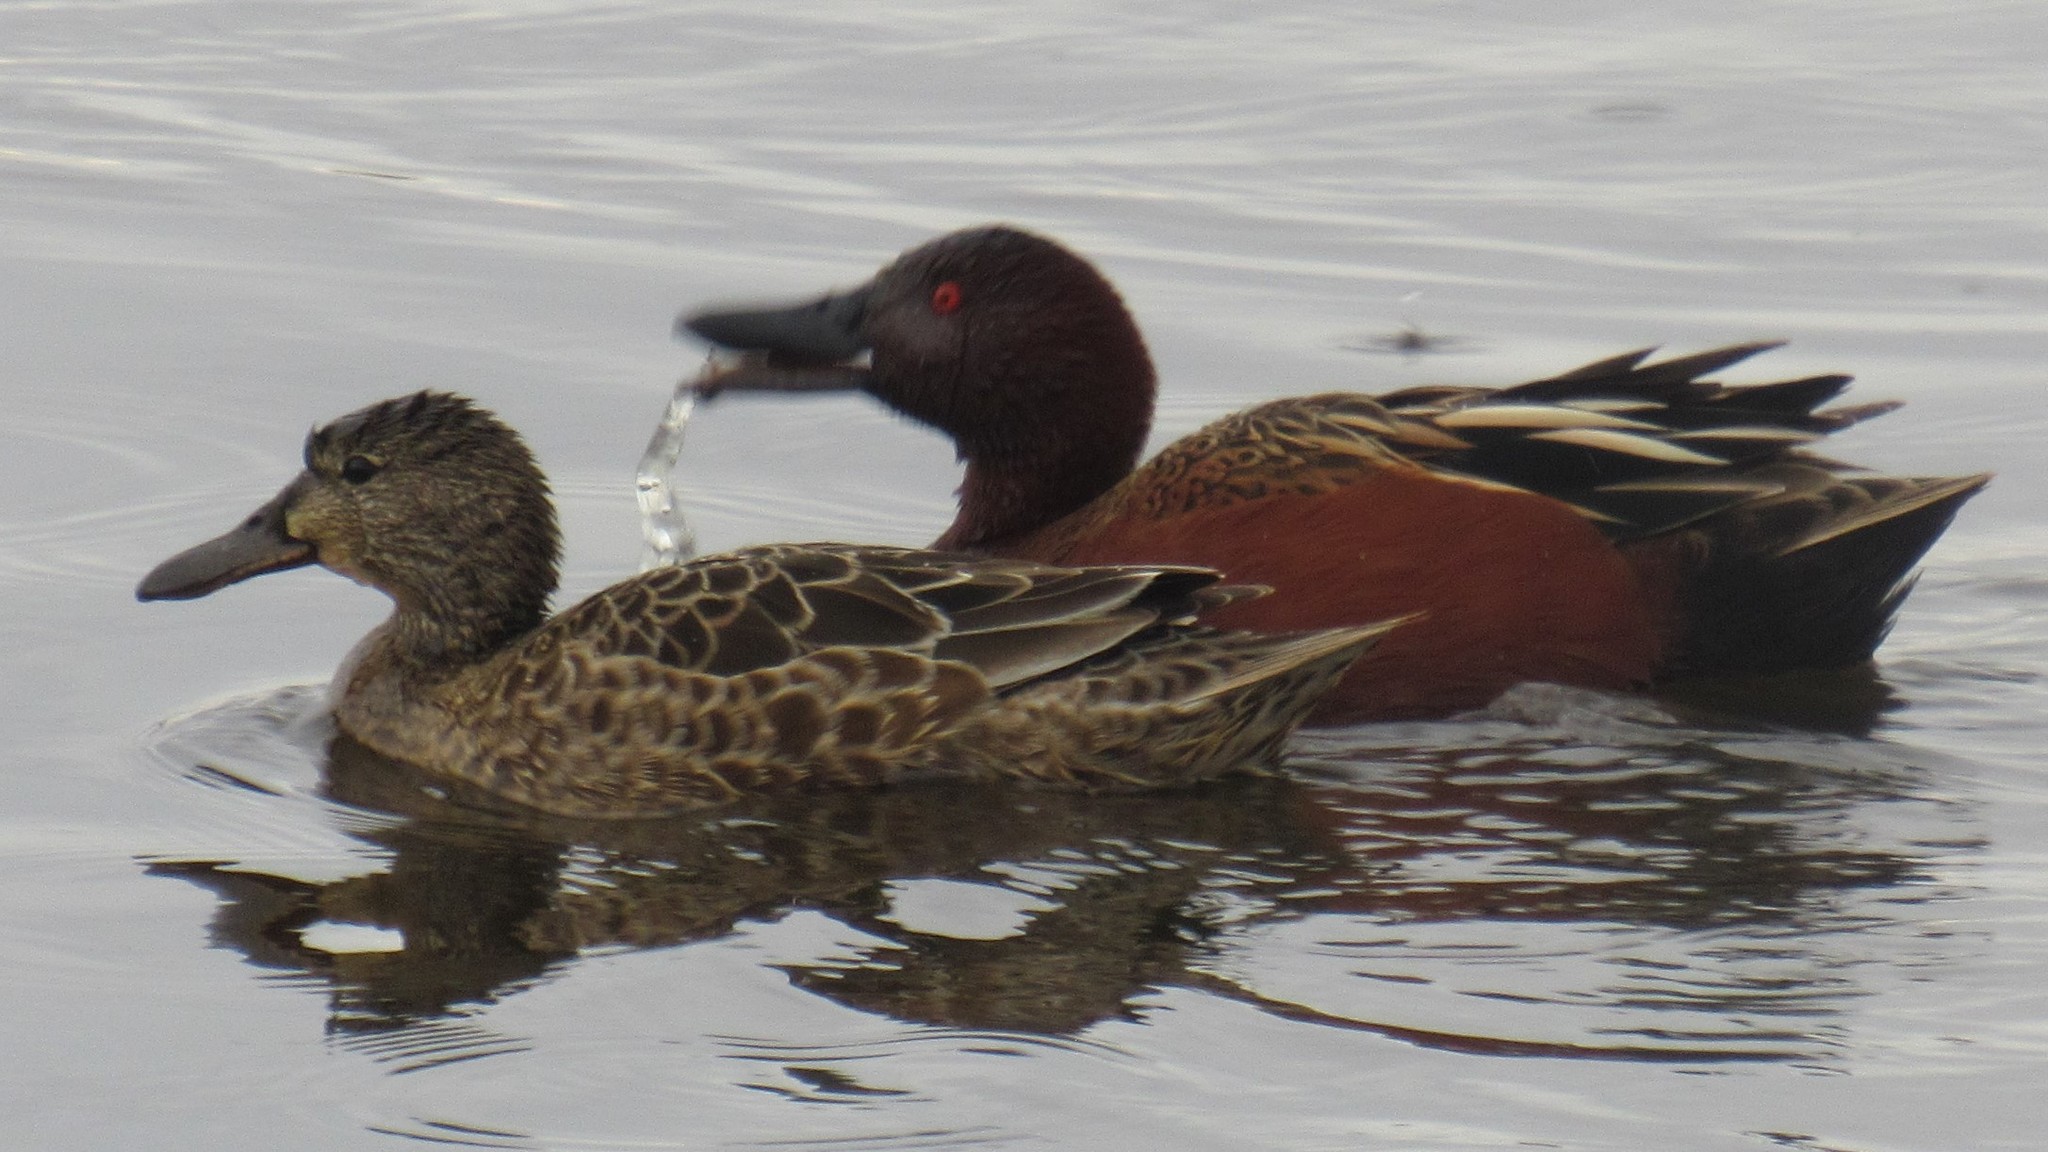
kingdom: Animalia
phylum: Chordata
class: Aves
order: Anseriformes
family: Anatidae
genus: Spatula
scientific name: Spatula cyanoptera
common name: Cinnamon teal
